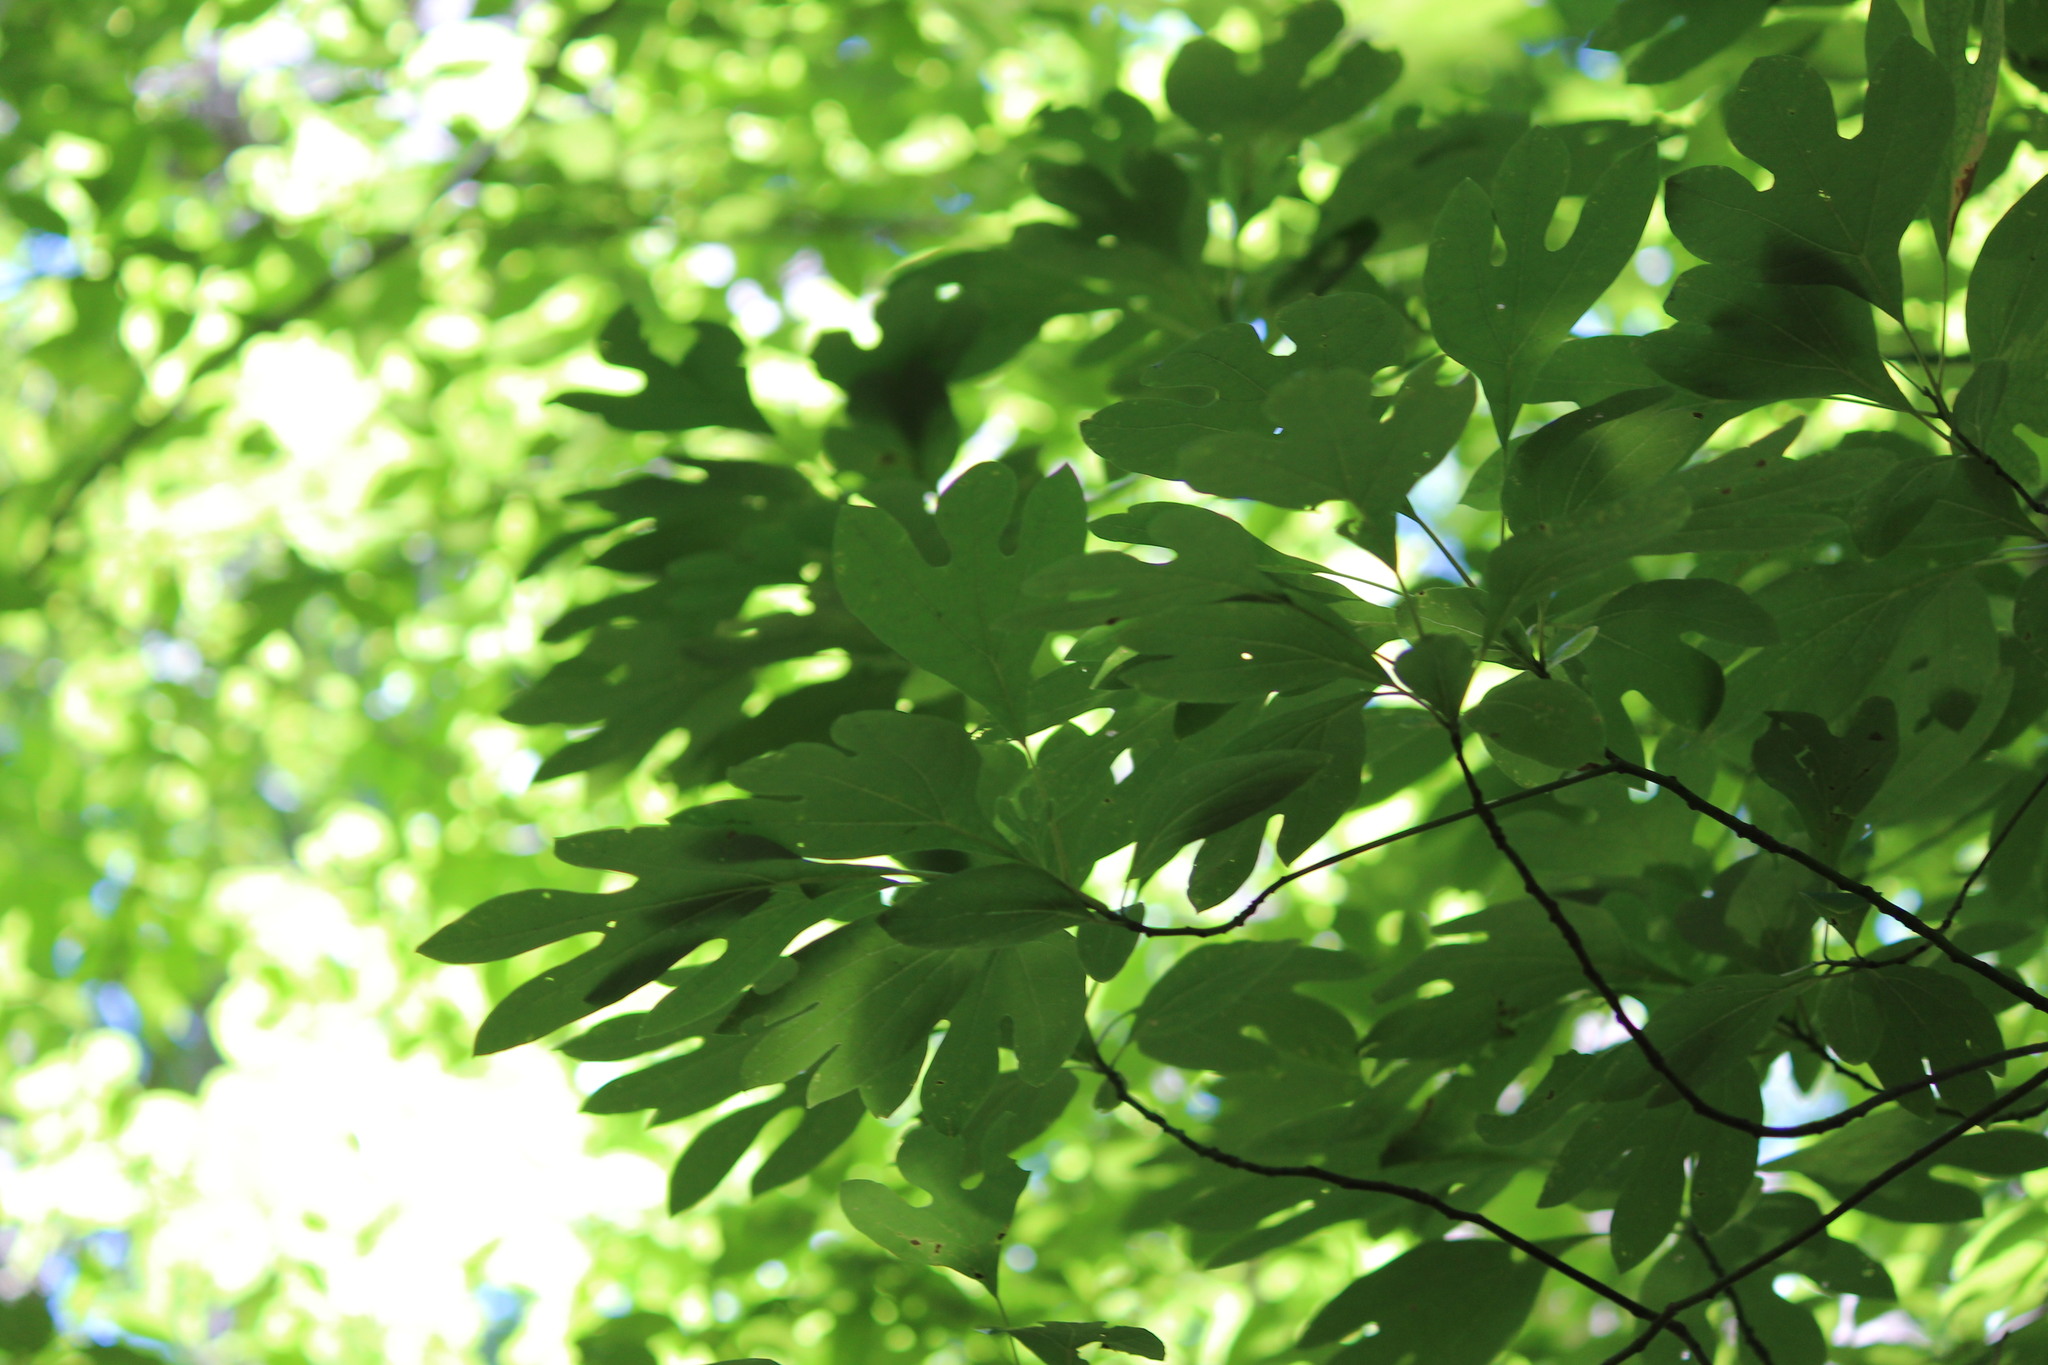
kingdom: Plantae
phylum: Tracheophyta
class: Magnoliopsida
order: Laurales
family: Lauraceae
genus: Sassafras
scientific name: Sassafras albidum
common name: Sassafras
